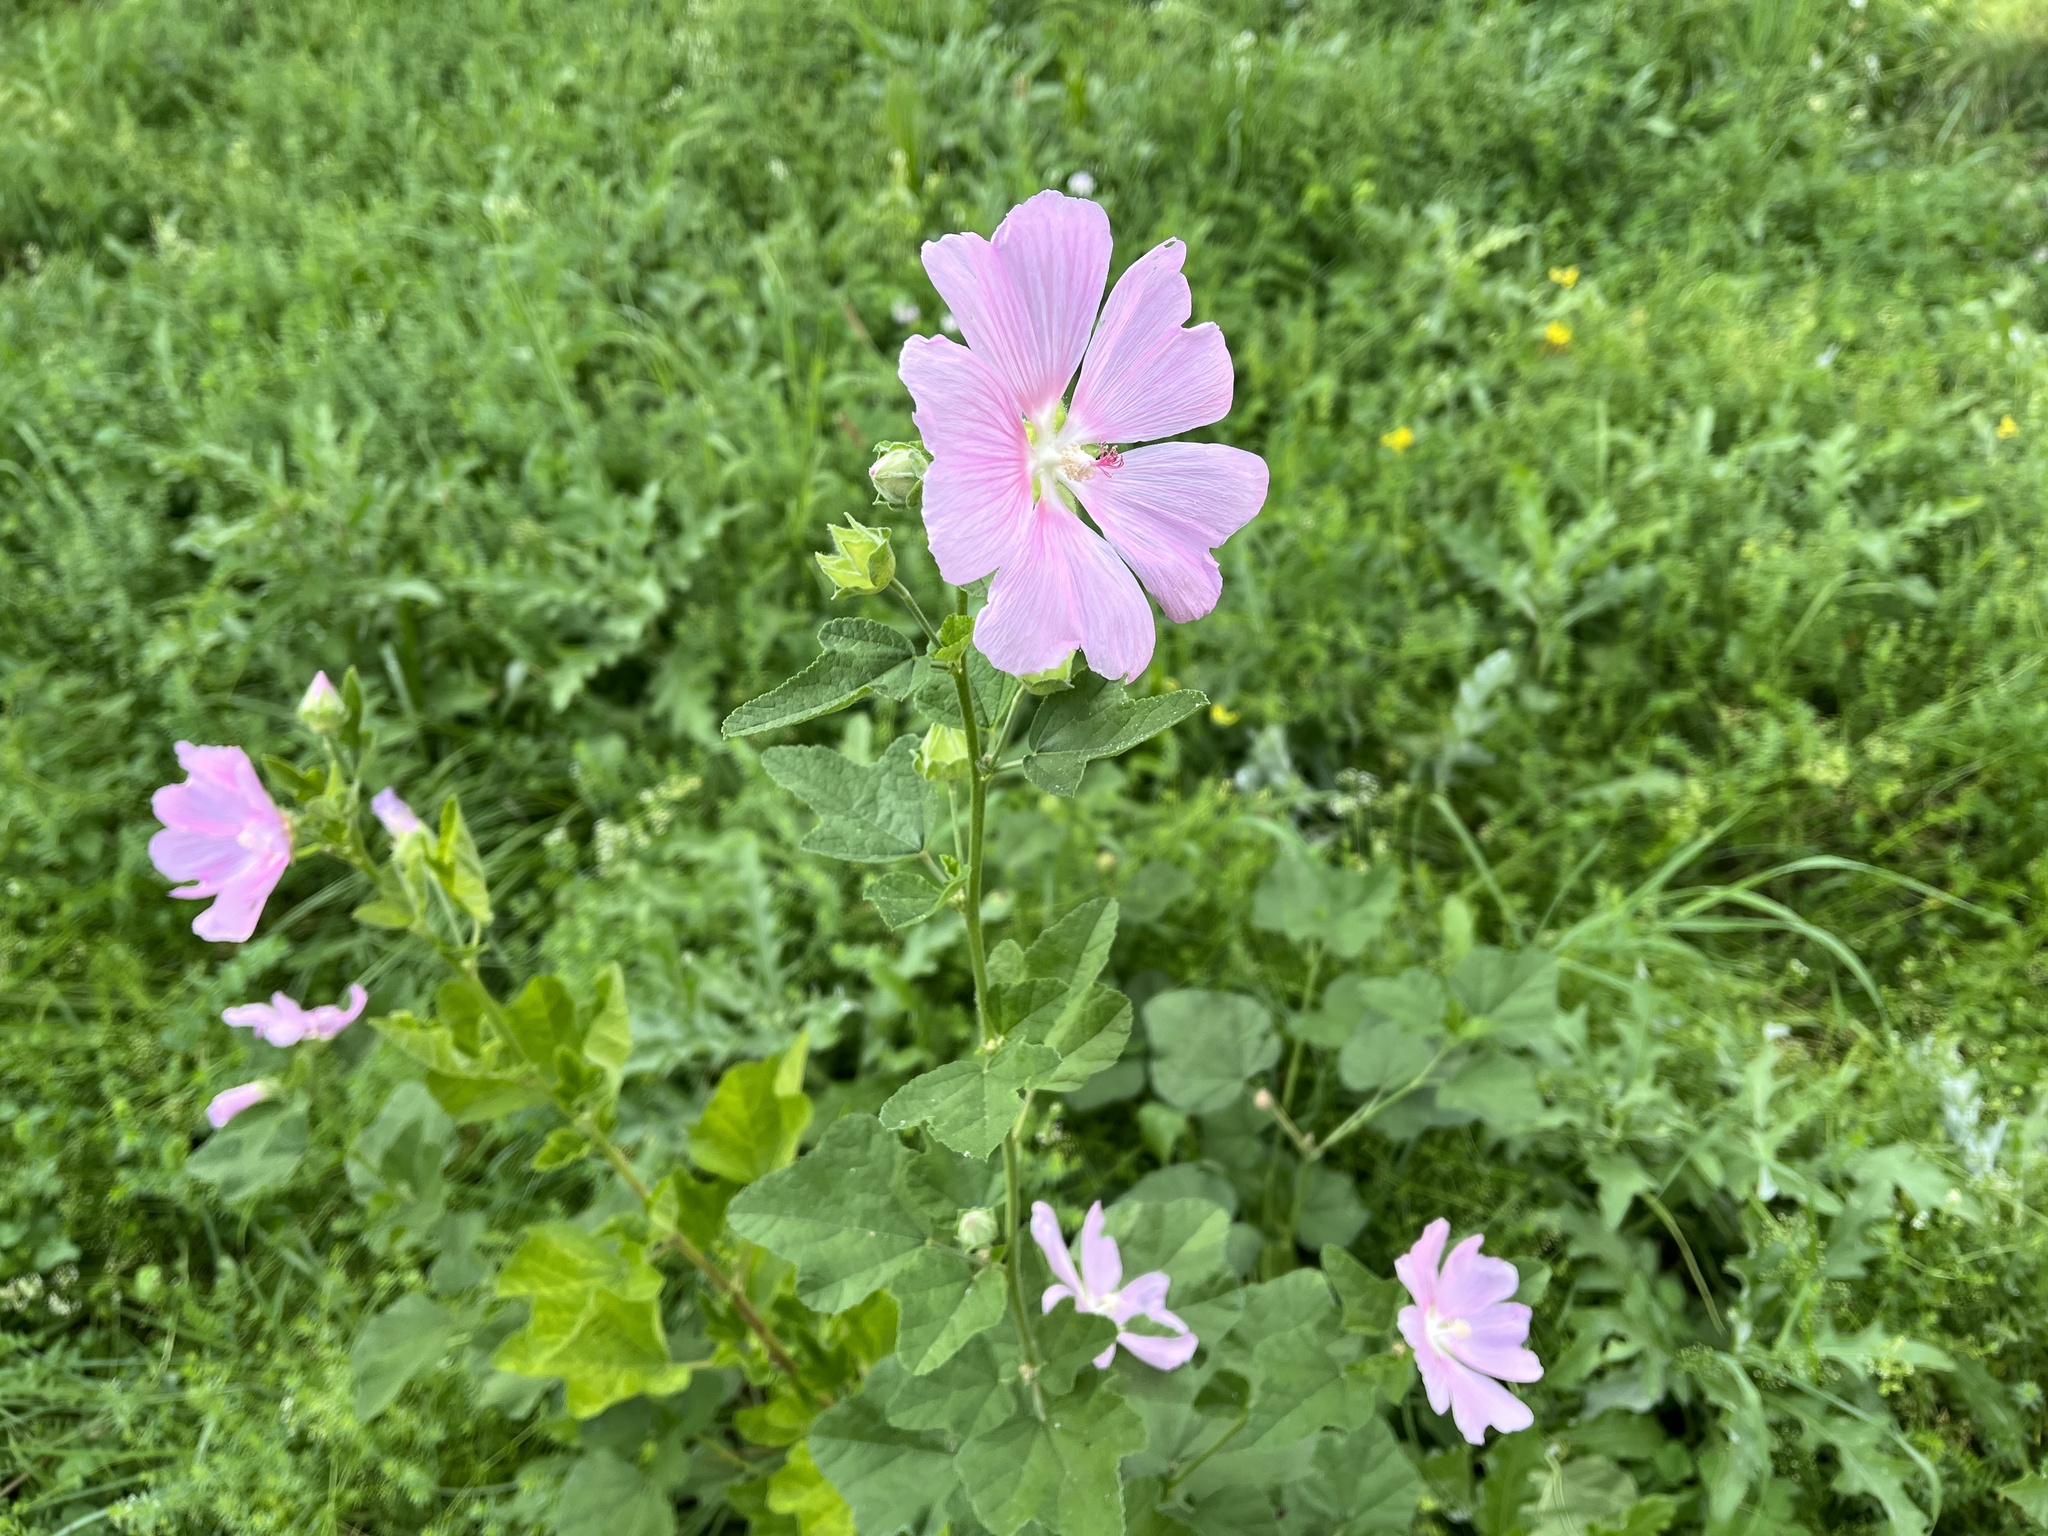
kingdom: Plantae
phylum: Tracheophyta
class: Magnoliopsida
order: Malvales
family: Malvaceae
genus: Malva
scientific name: Malva thuringiaca
